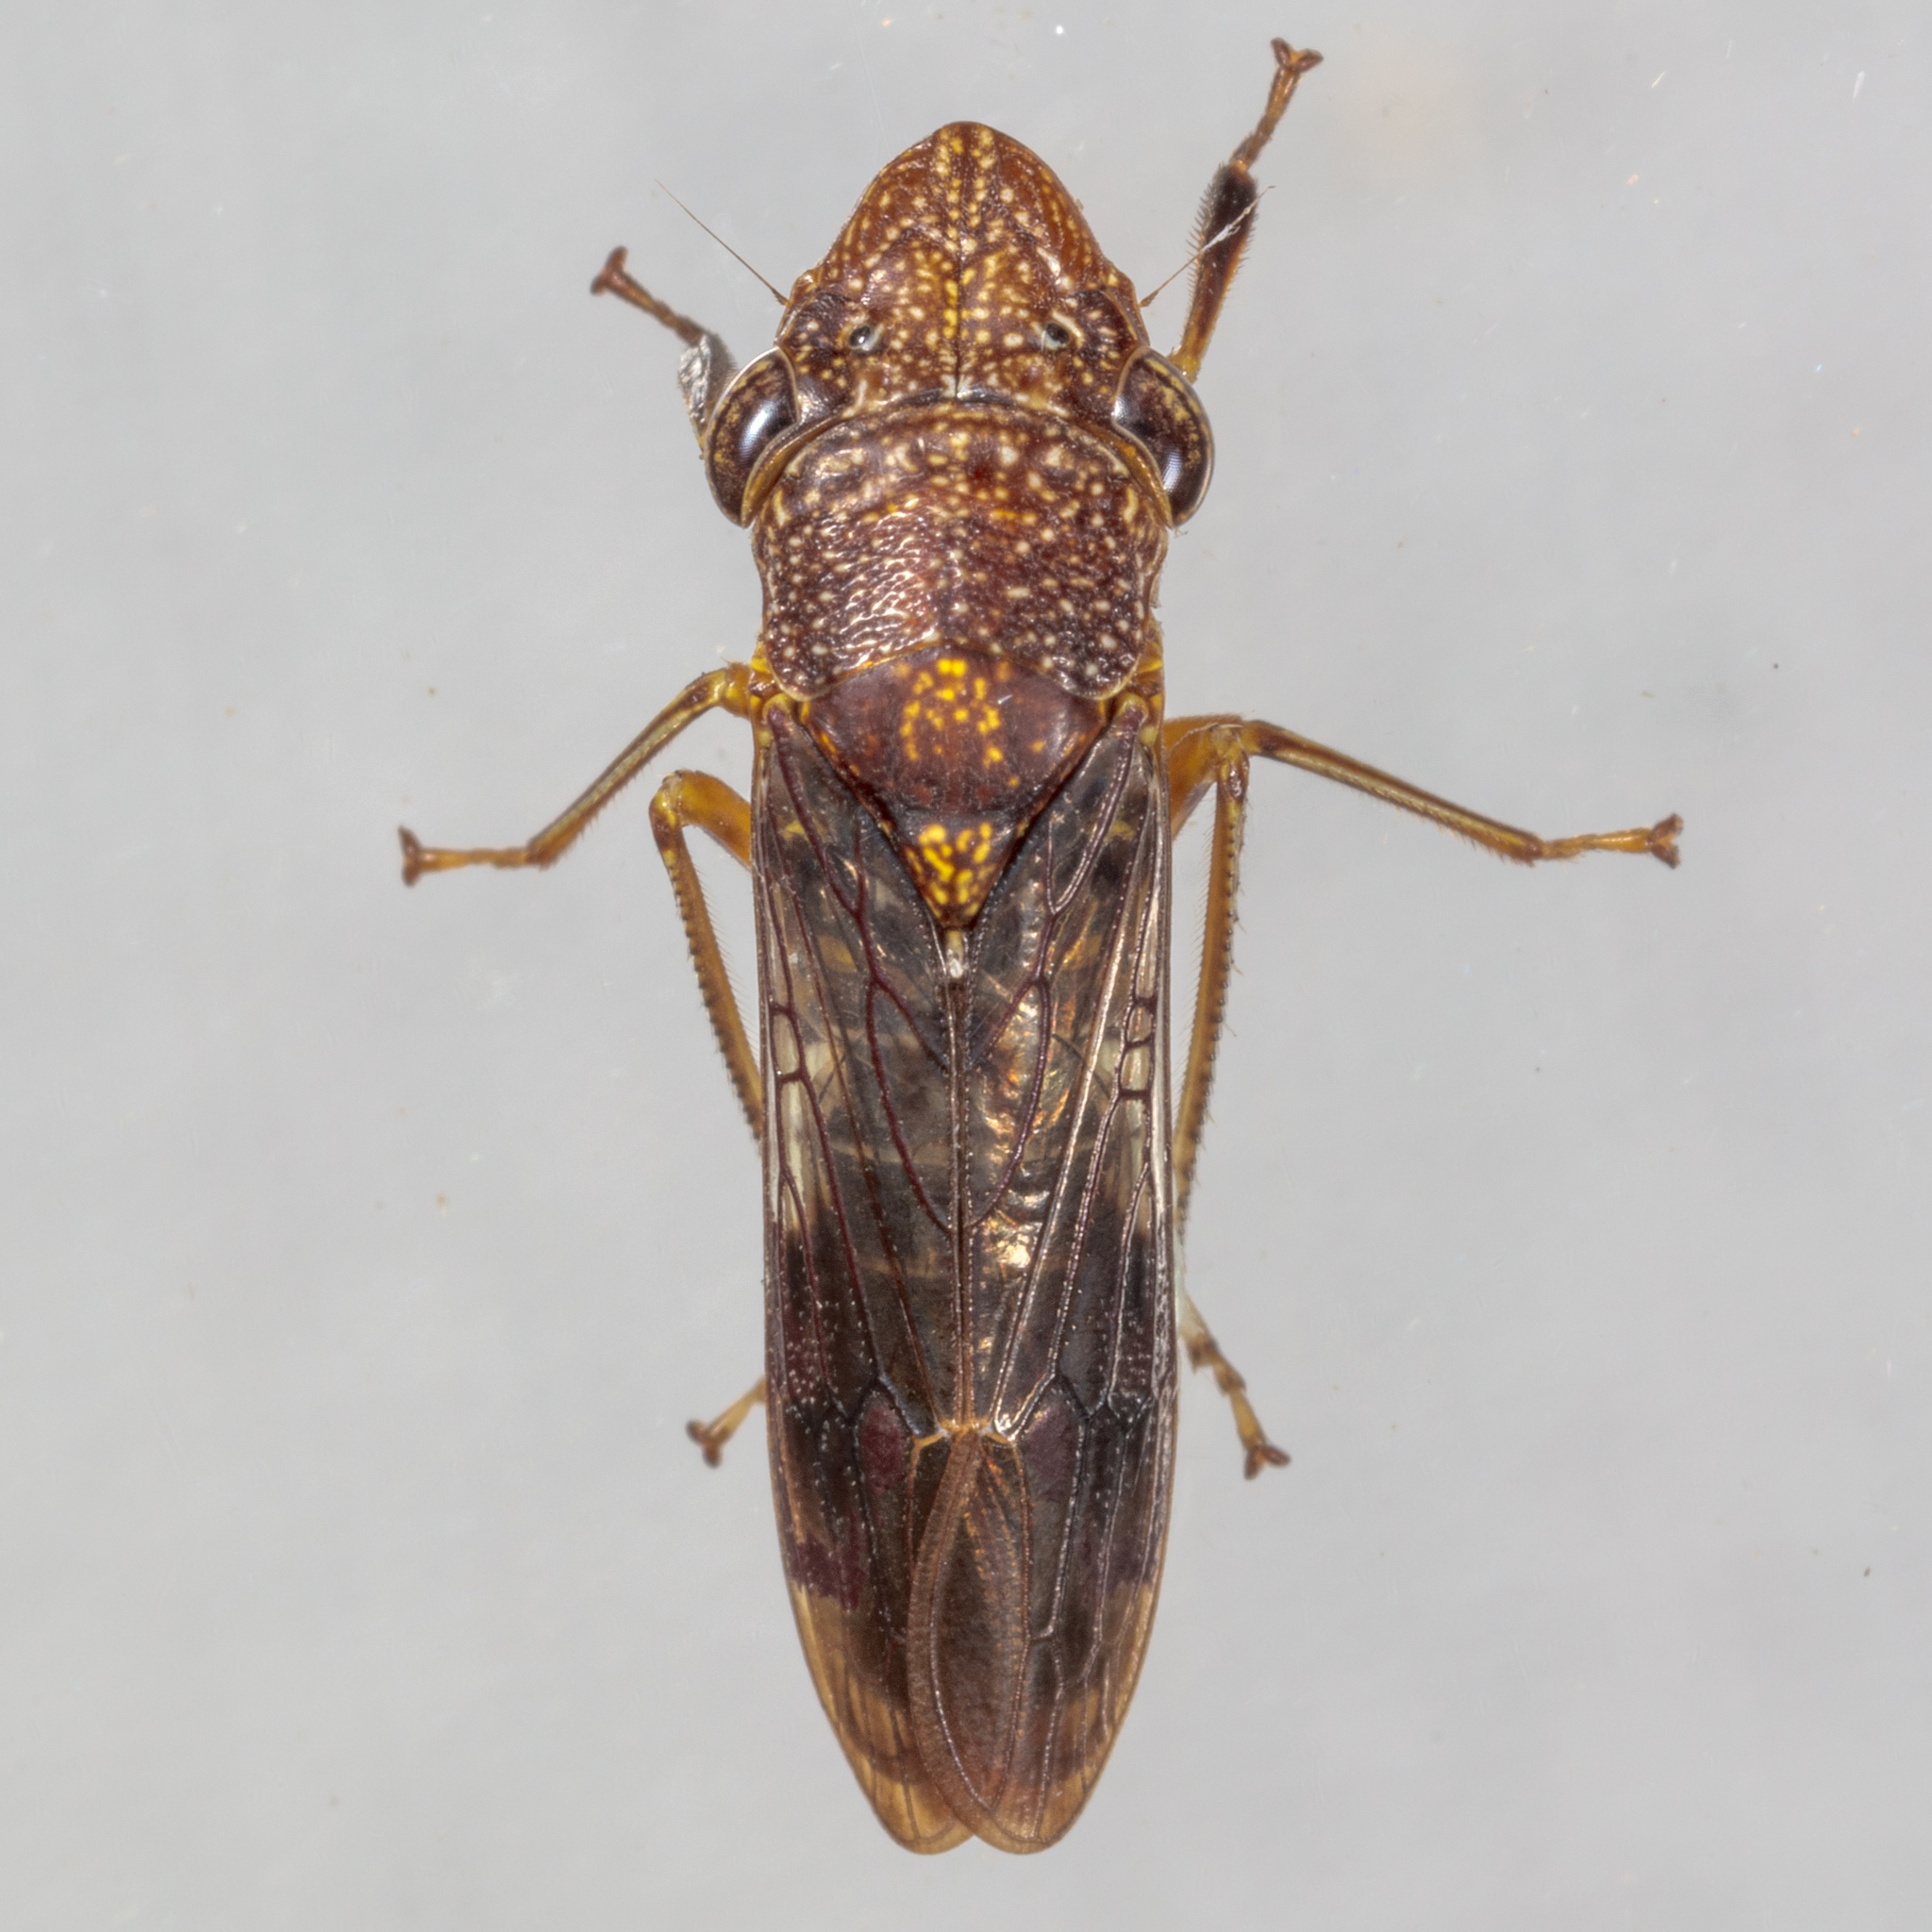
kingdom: Animalia
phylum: Arthropoda
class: Insecta
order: Hemiptera
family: Cicadellidae
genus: Homalodisca
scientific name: Homalodisca vitripennis
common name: Glassy-winged sharpshooter
